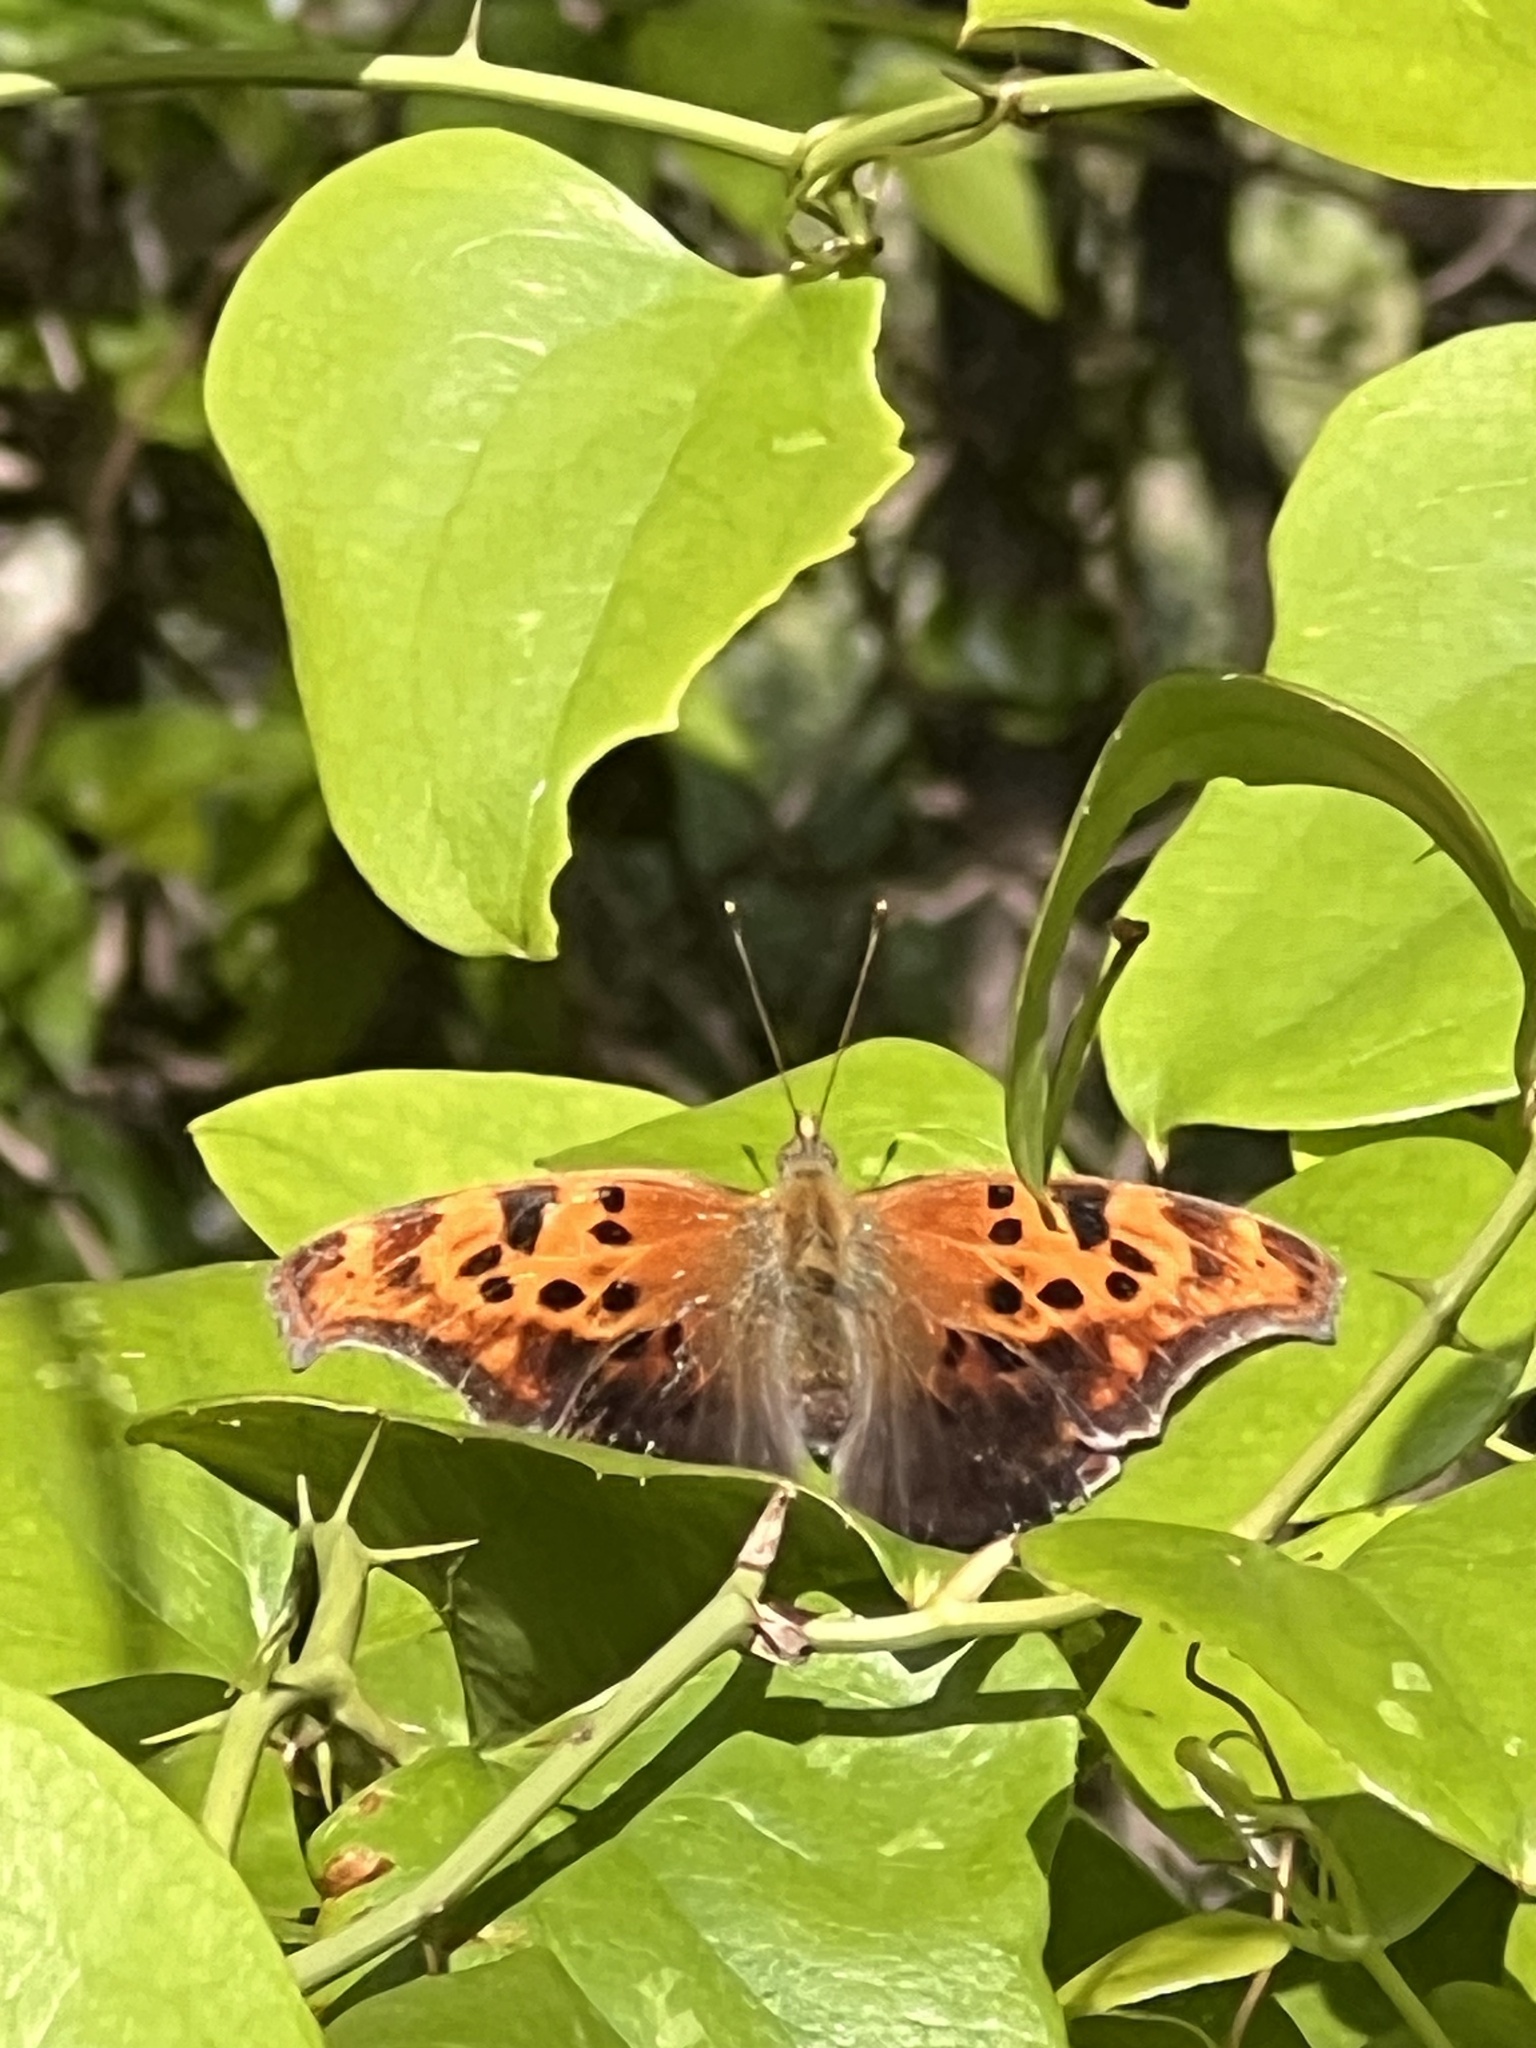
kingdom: Animalia
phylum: Arthropoda
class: Insecta
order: Lepidoptera
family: Nymphalidae
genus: Polygonia
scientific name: Polygonia interrogationis
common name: Question mark
